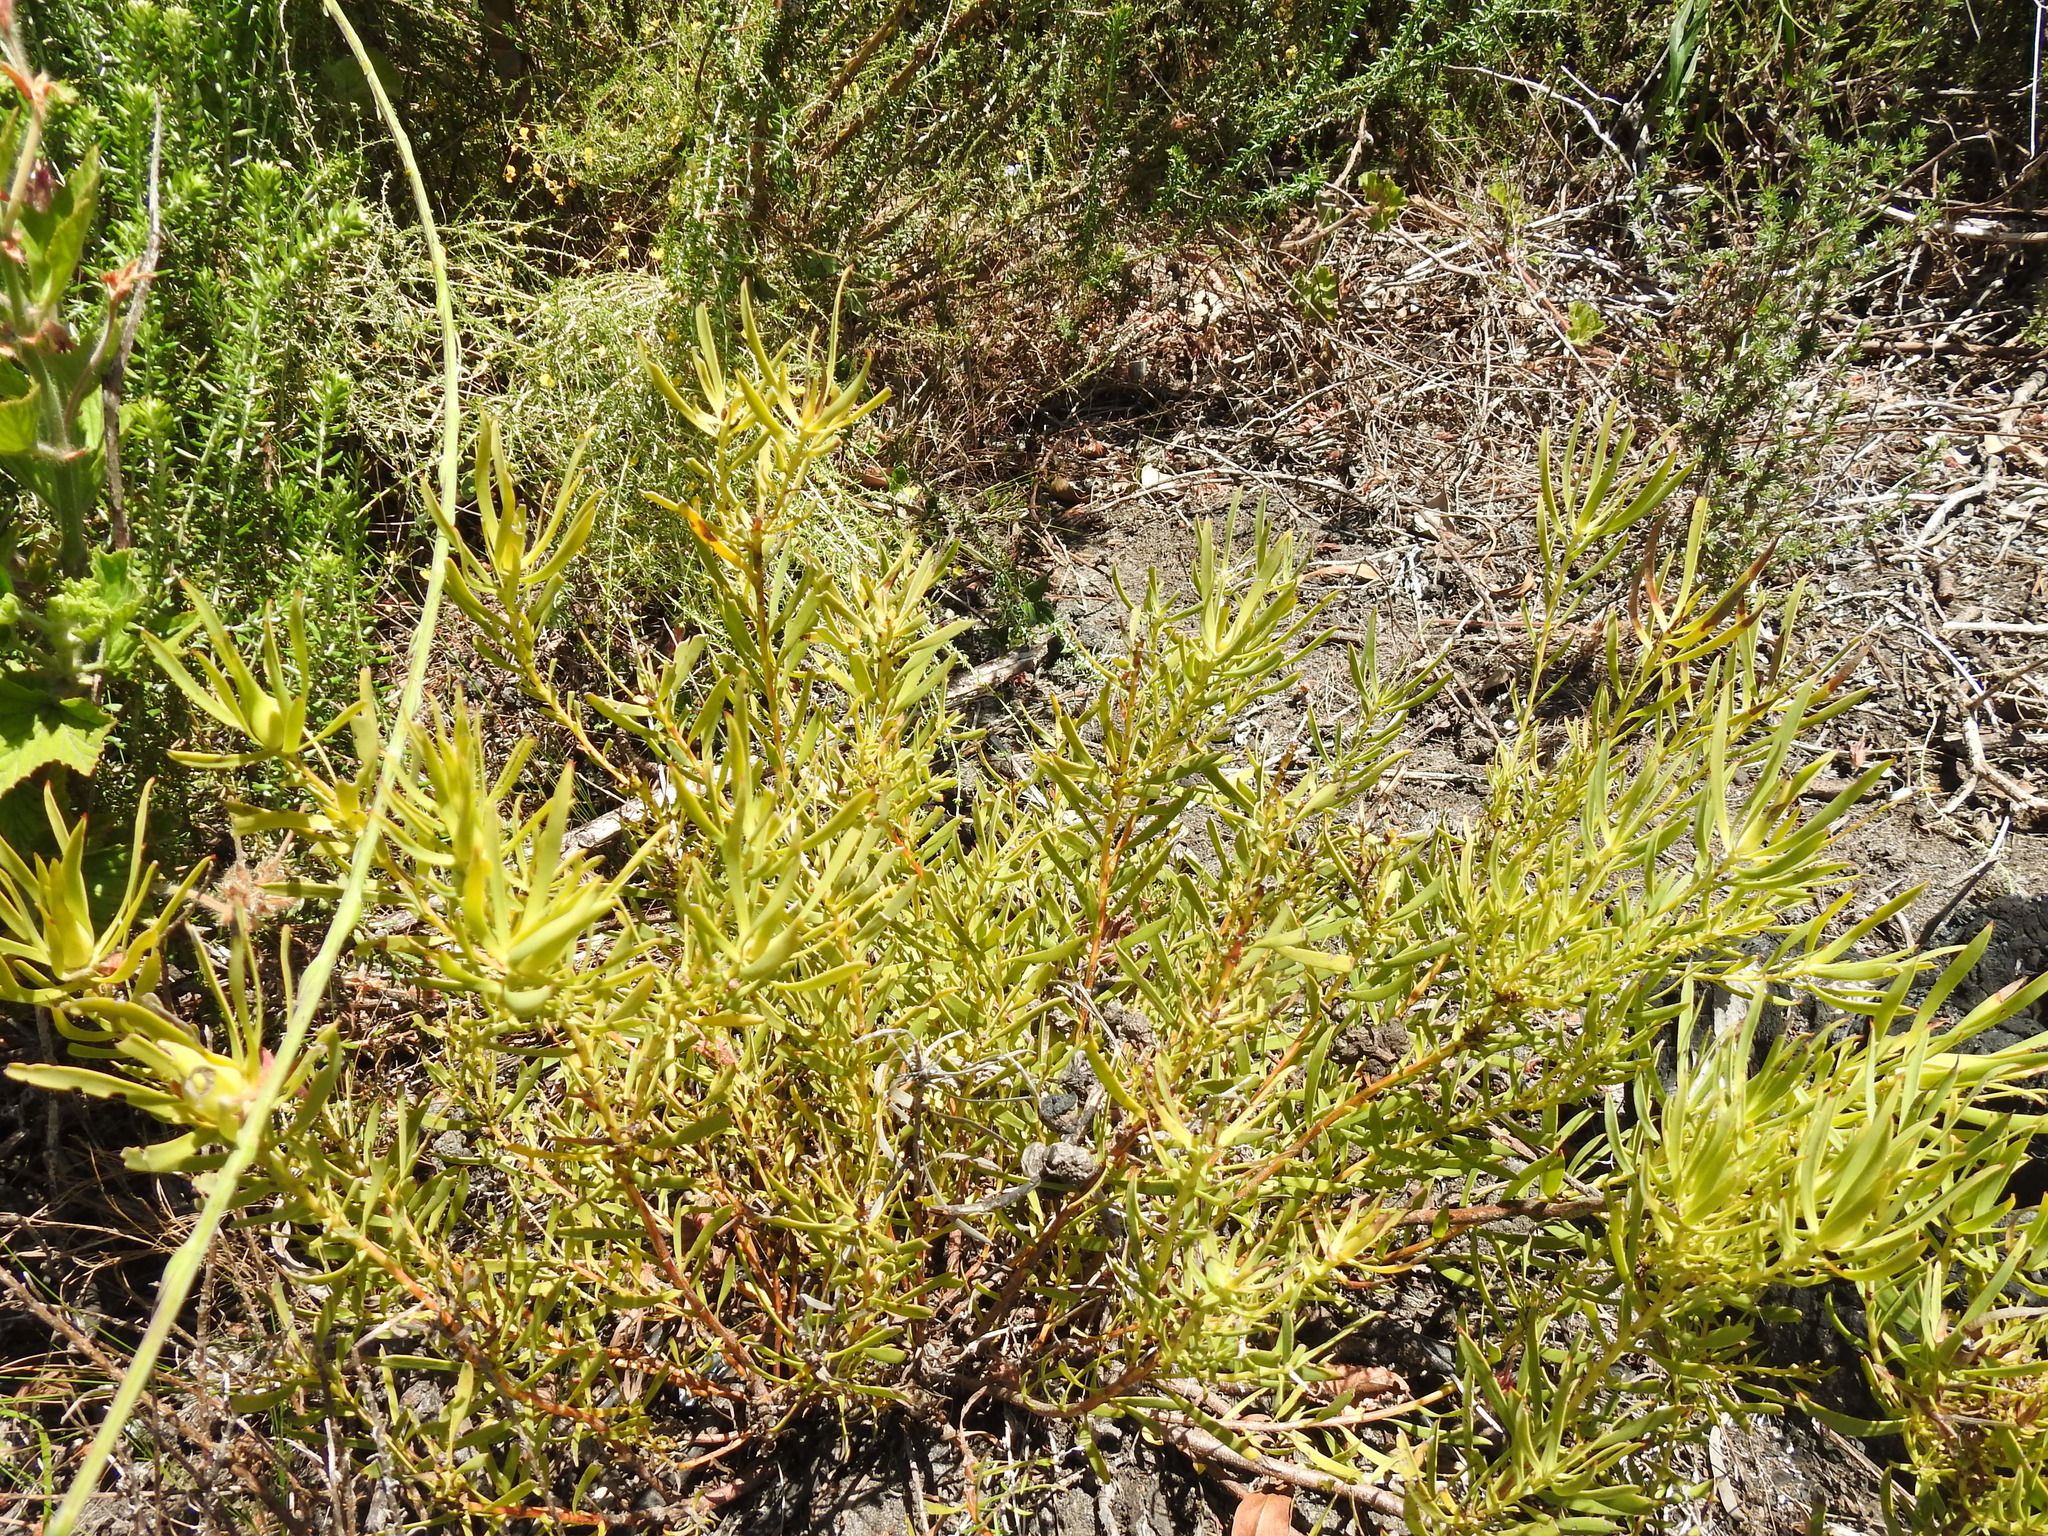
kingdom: Plantae
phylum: Tracheophyta
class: Magnoliopsida
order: Proteales
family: Proteaceae
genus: Leucadendron
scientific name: Leucadendron salignum
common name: Common sunshine conebush
